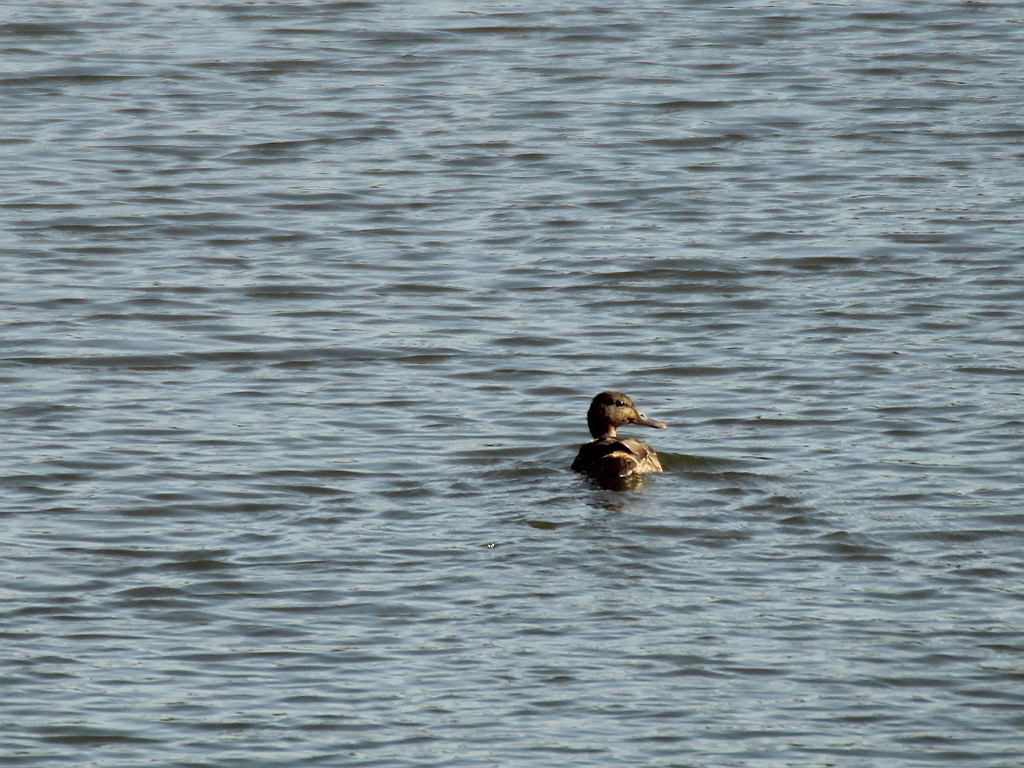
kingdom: Animalia
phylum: Chordata
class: Aves
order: Anseriformes
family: Anatidae
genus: Anas
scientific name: Anas platyrhynchos
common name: Mallard
